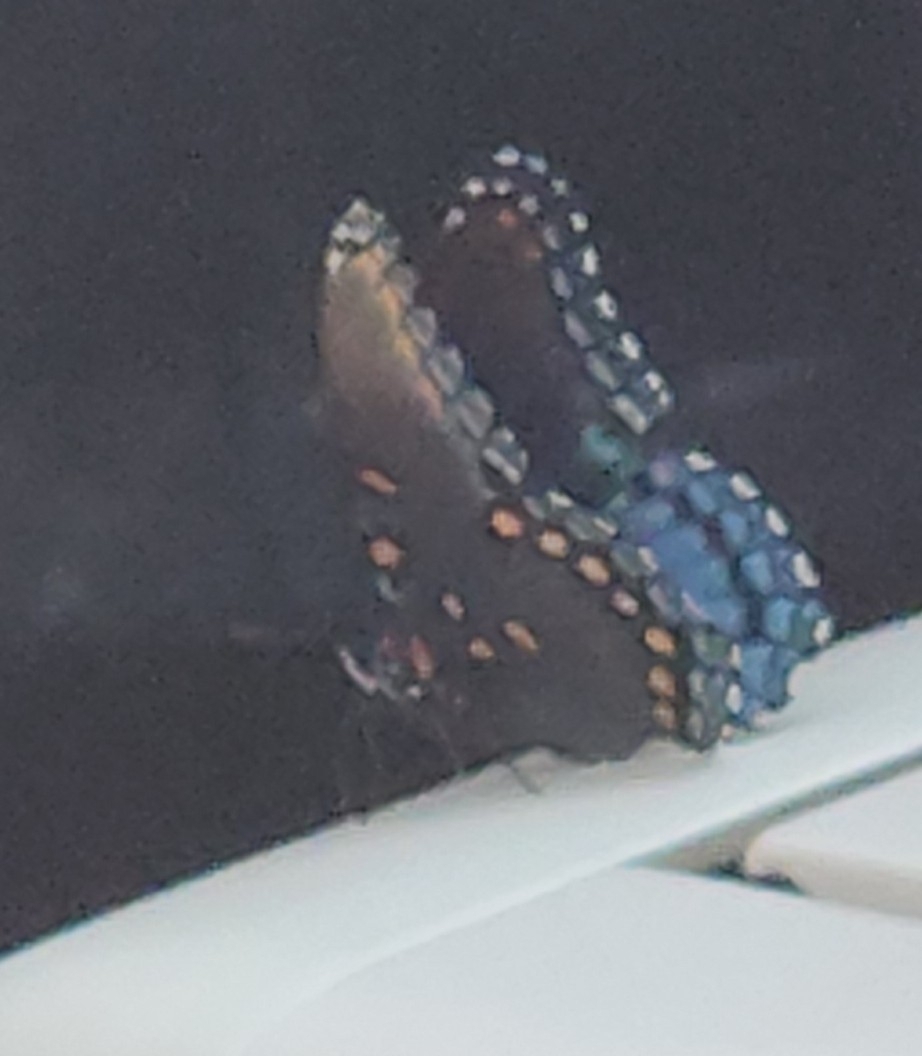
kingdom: Animalia
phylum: Arthropoda
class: Insecta
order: Lepidoptera
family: Nymphalidae
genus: Limenitis
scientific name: Limenitis astyanax
